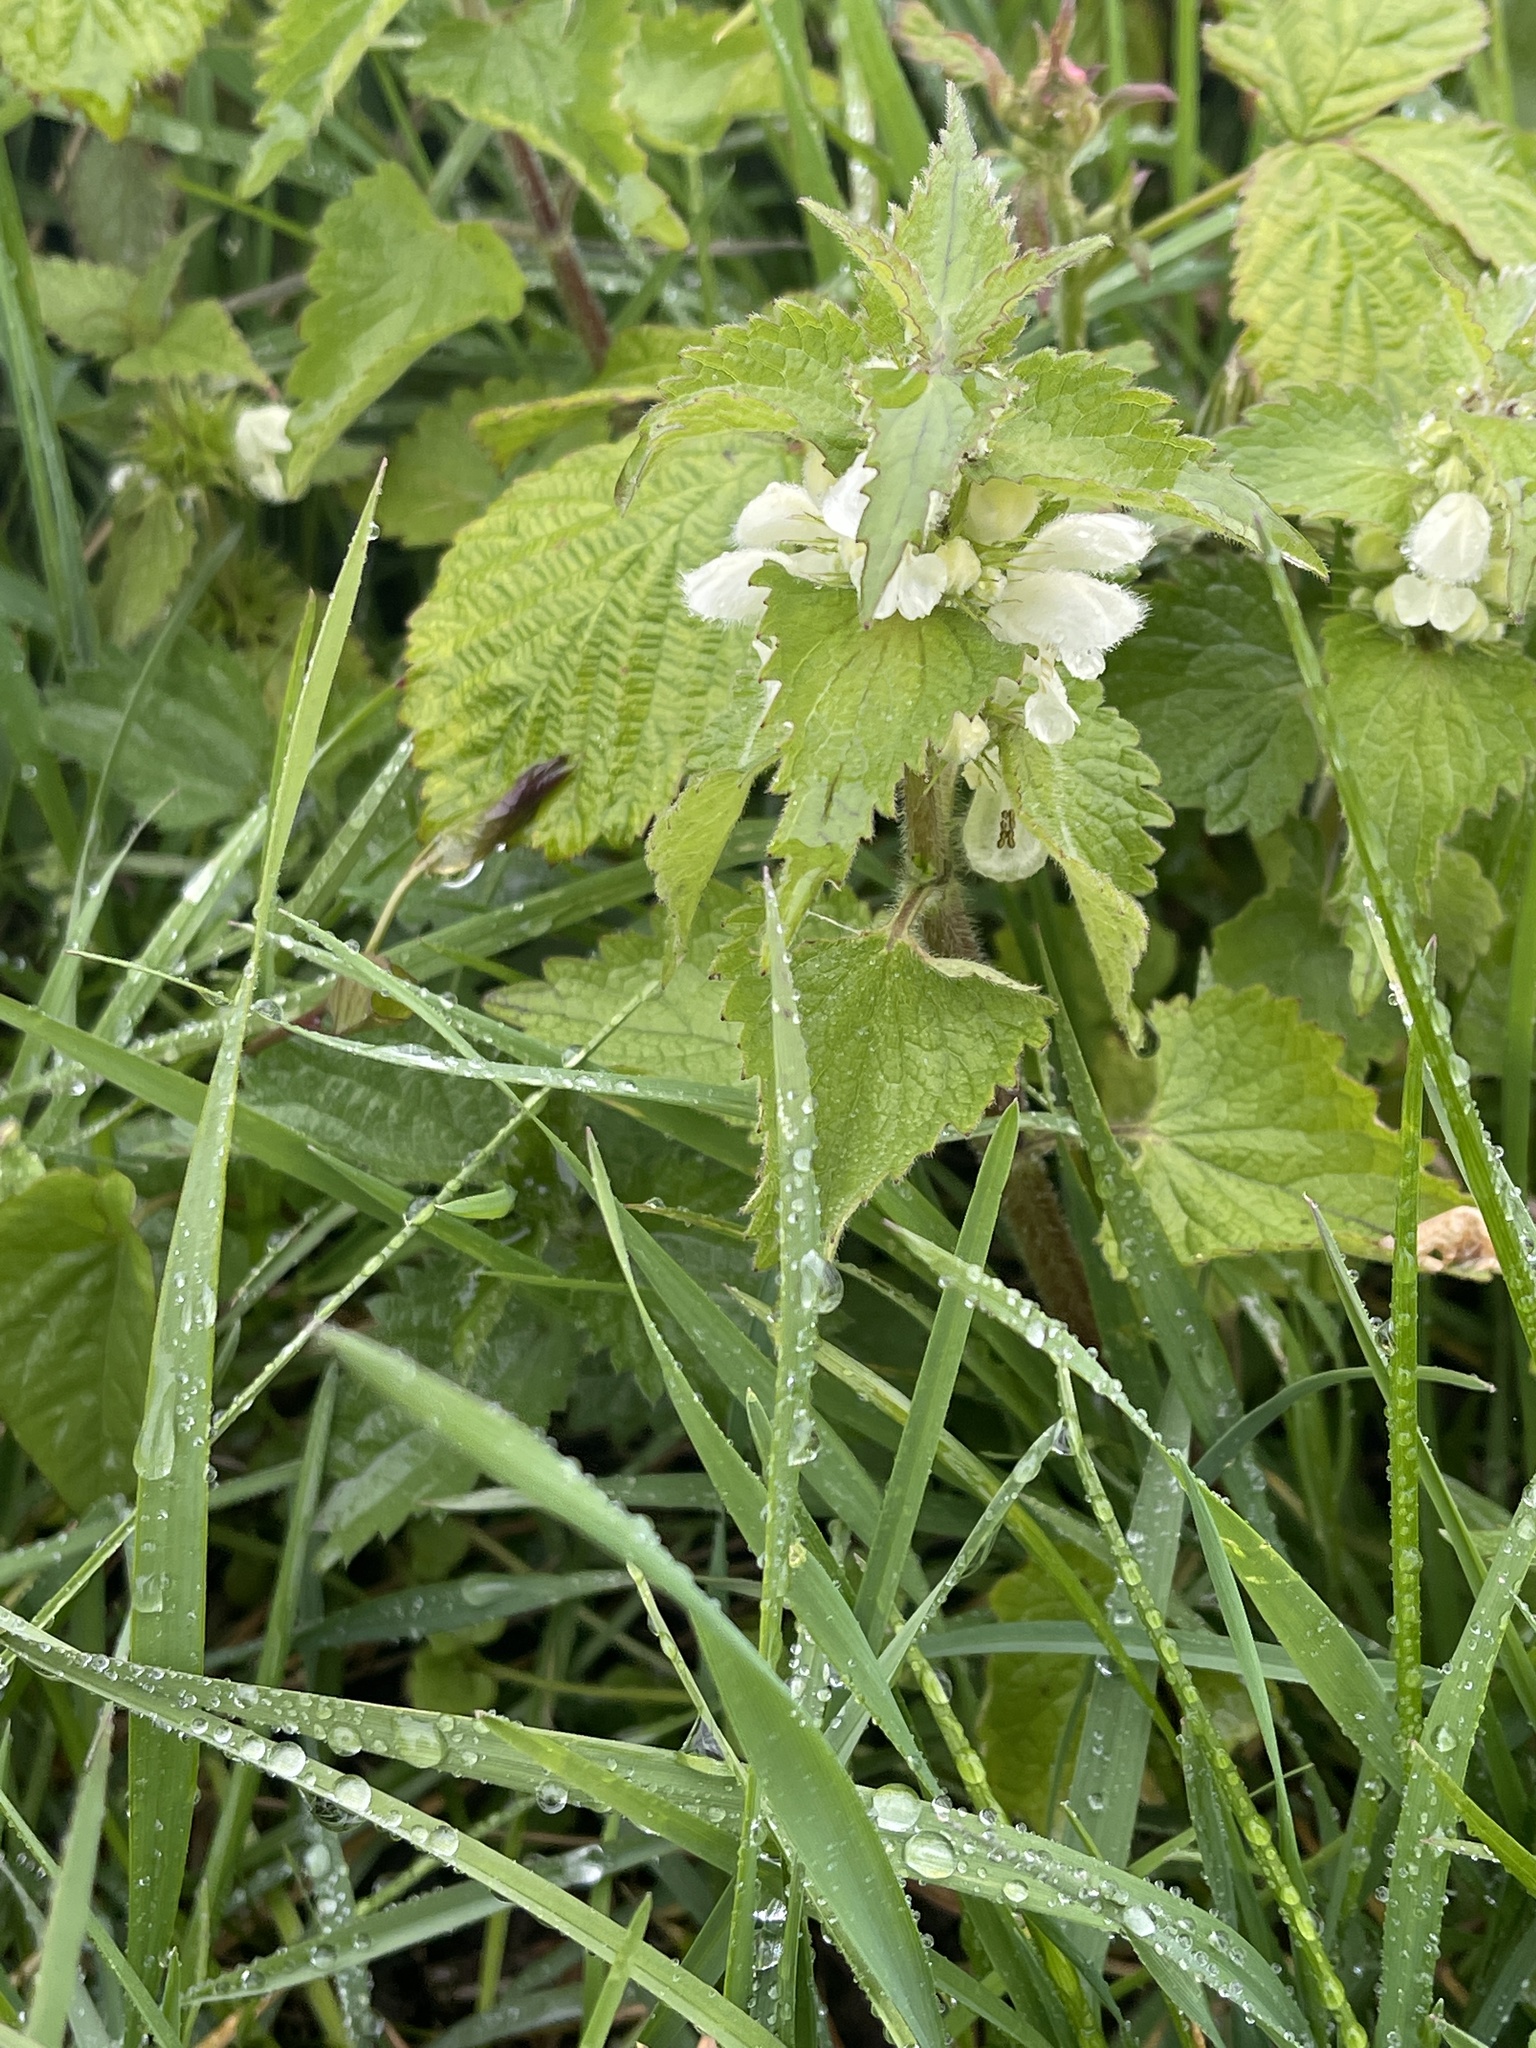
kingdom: Plantae
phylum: Tracheophyta
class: Magnoliopsida
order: Lamiales
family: Lamiaceae
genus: Lamium
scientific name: Lamium album
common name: White dead-nettle
